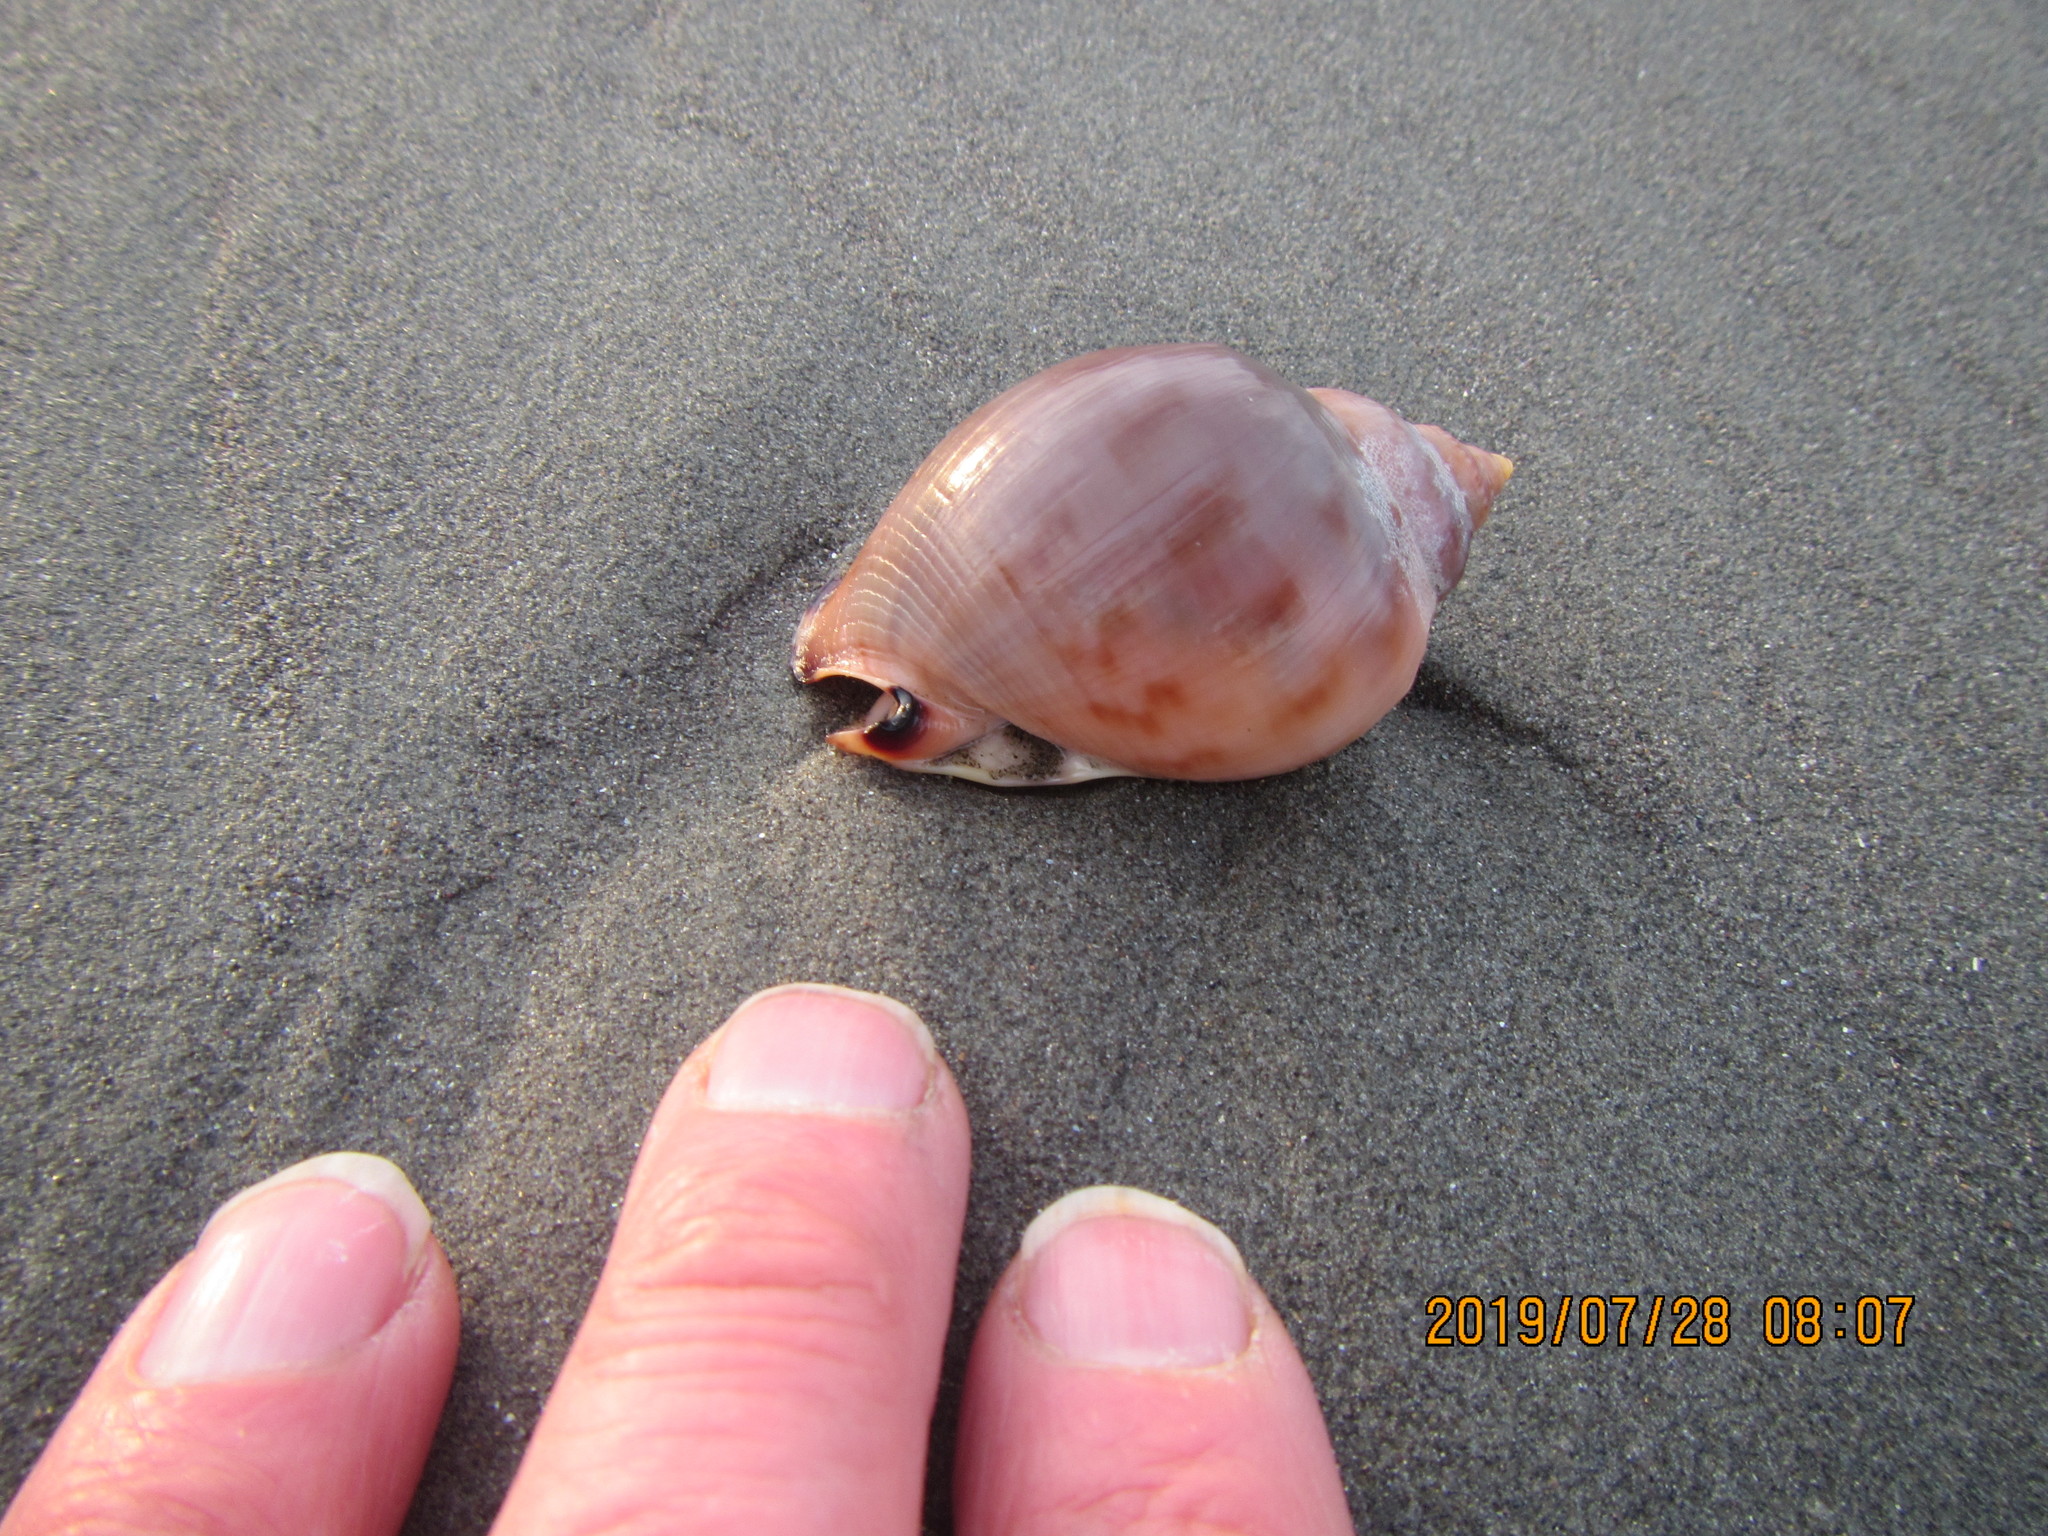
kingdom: Animalia
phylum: Mollusca
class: Gastropoda
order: Littorinimorpha
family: Cassidae
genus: Semicassis
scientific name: Semicassis pyrum
